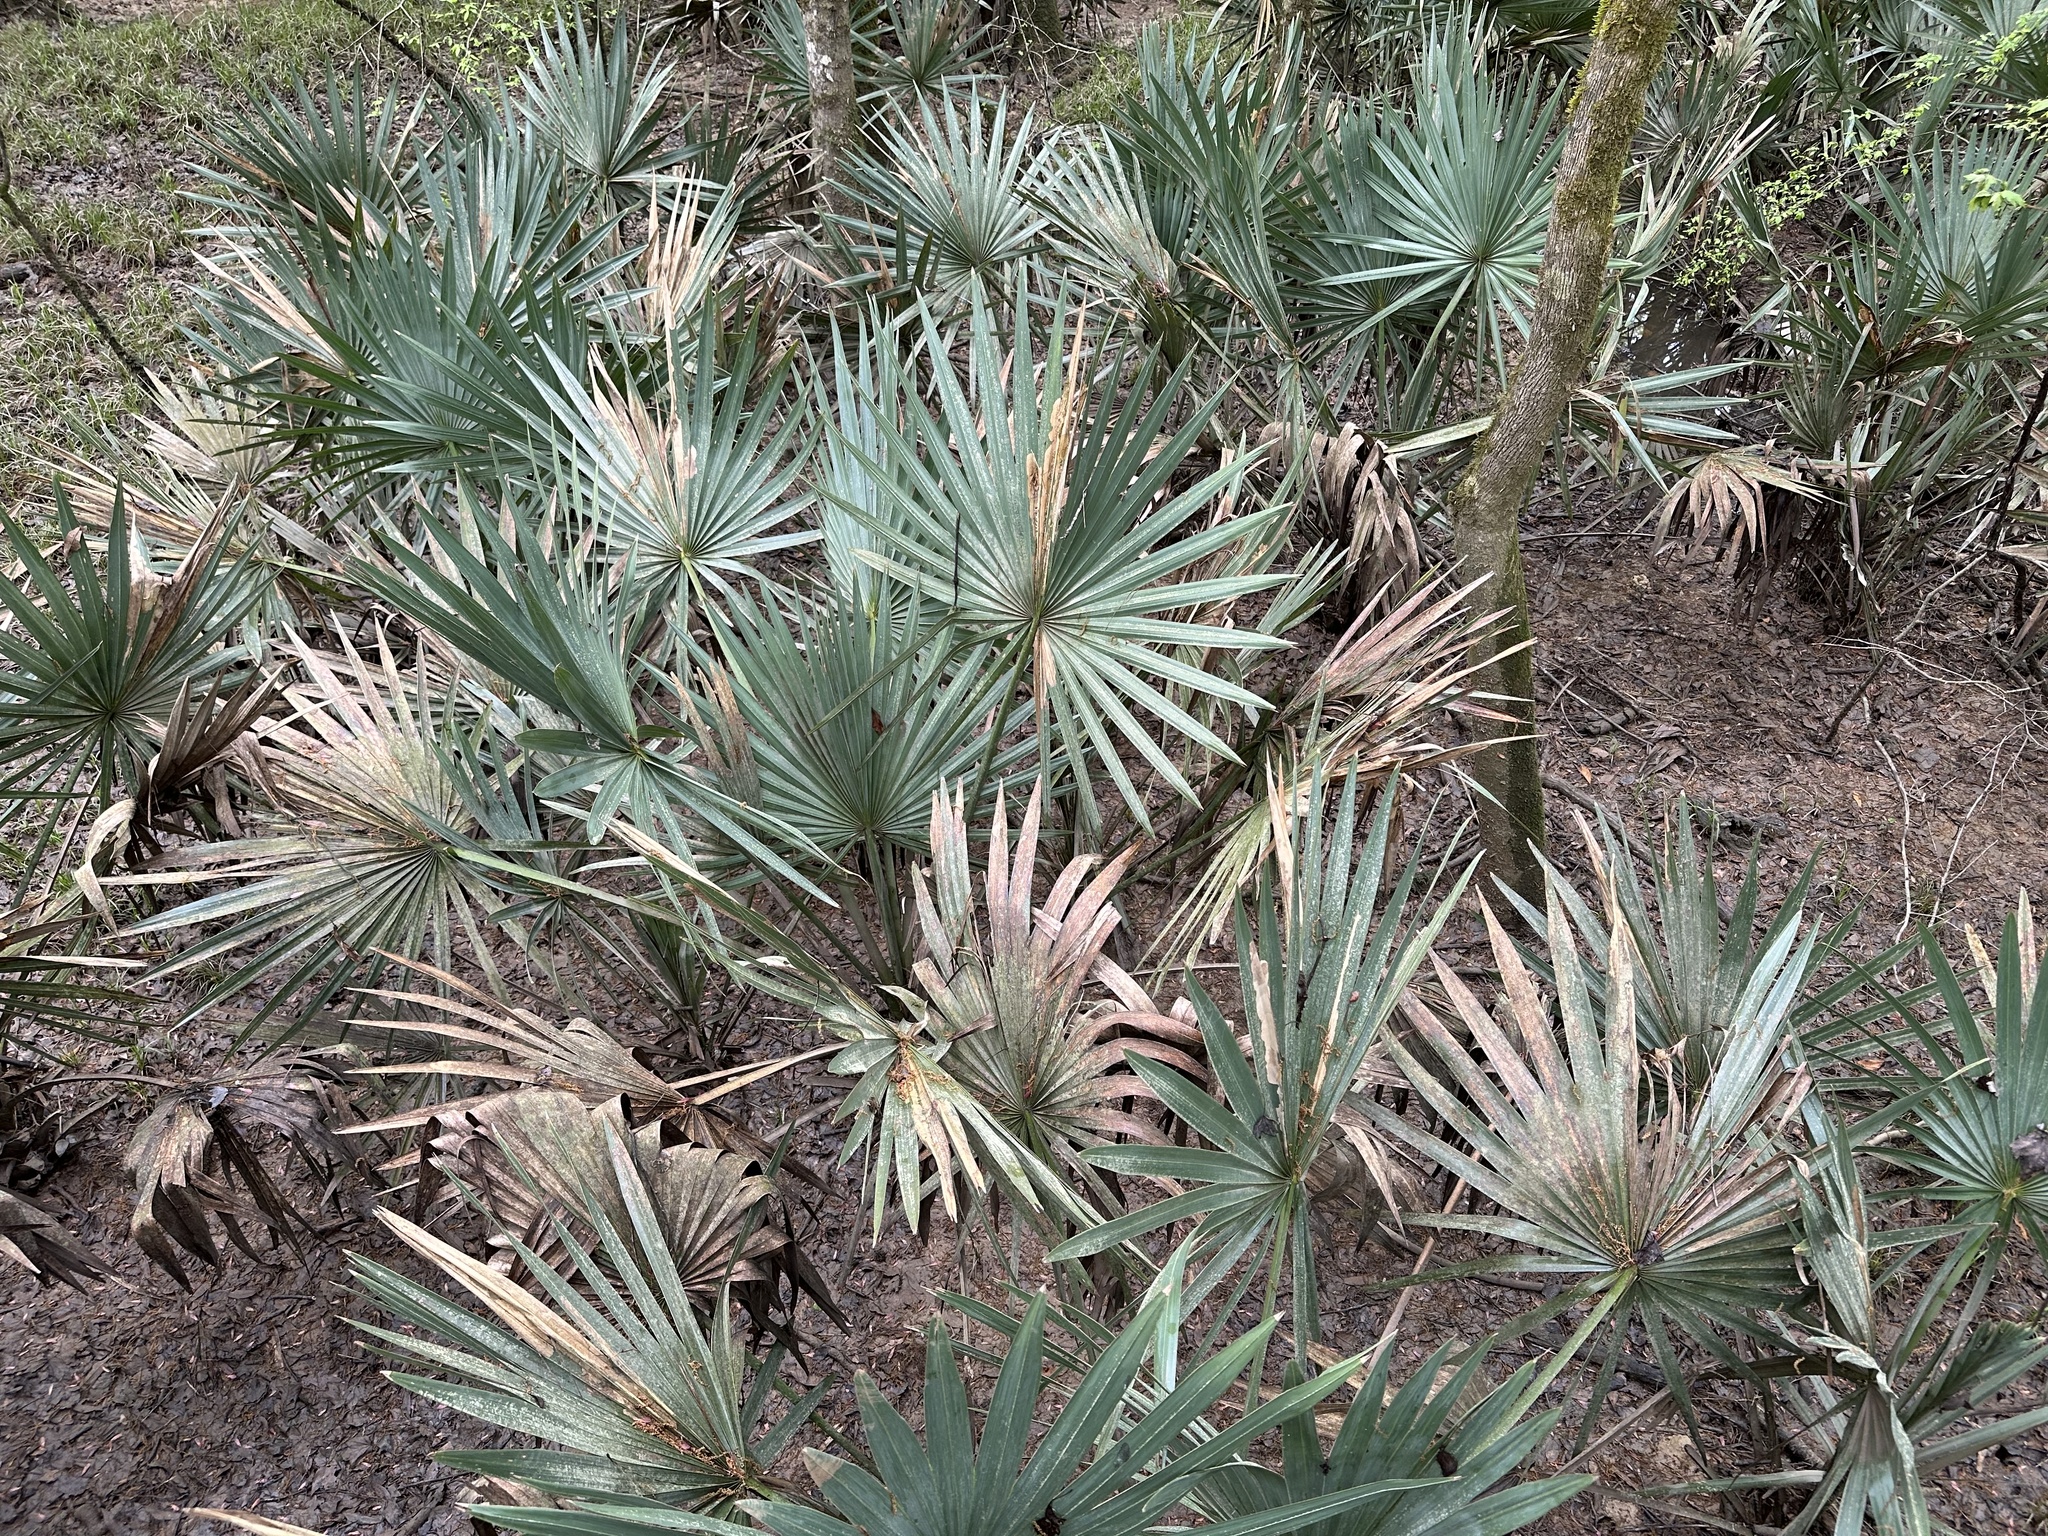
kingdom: Plantae
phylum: Tracheophyta
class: Liliopsida
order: Arecales
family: Arecaceae
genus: Sabal
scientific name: Sabal minor
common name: Dwarf palmetto
